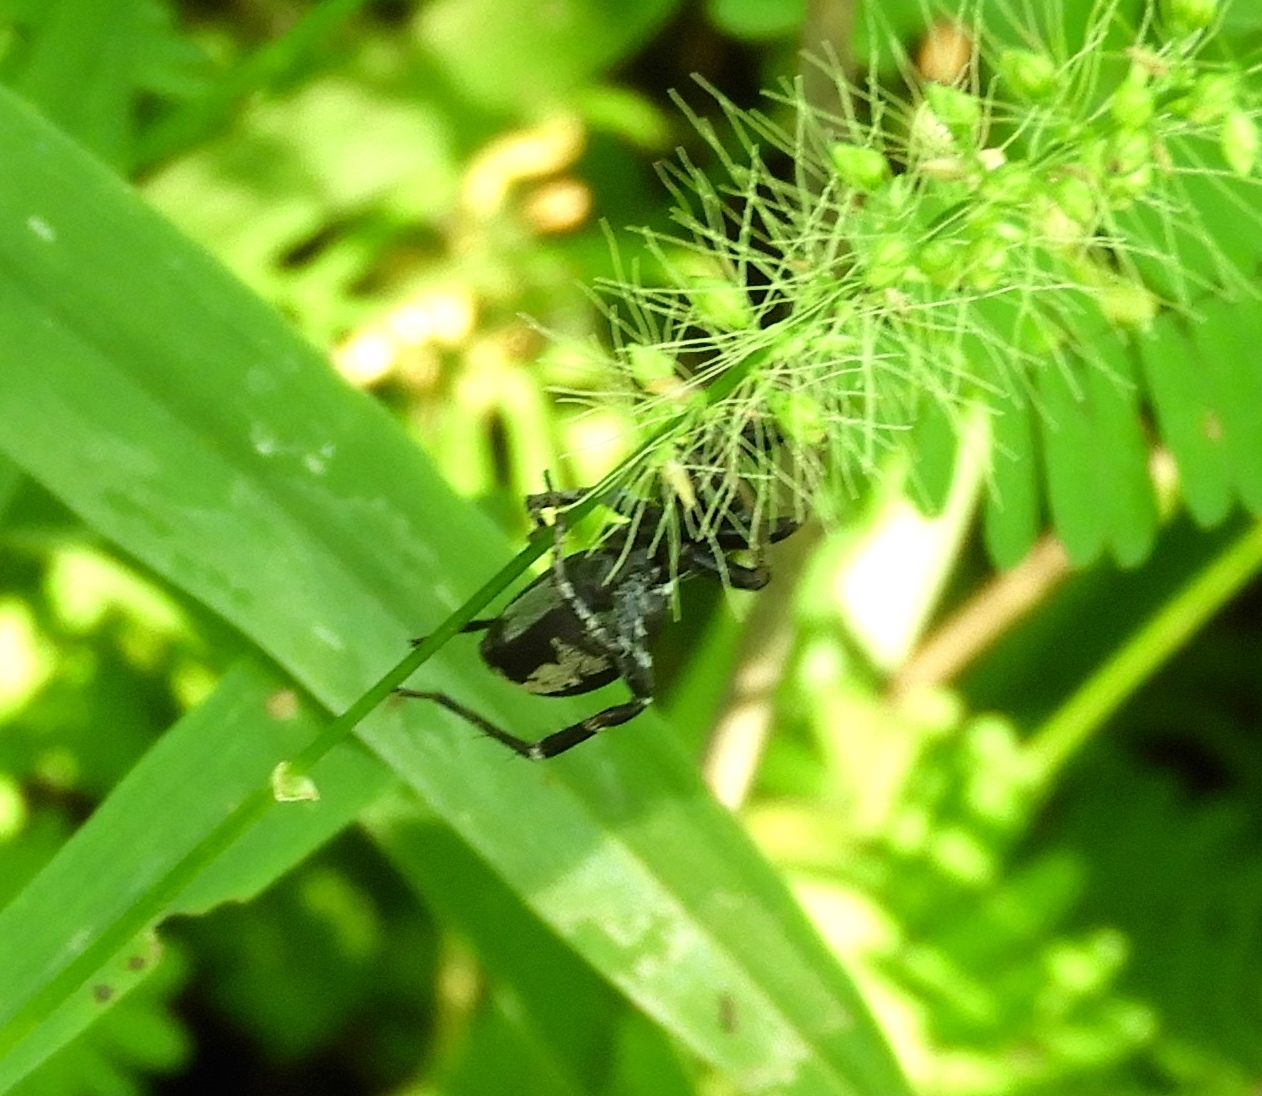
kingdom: Animalia
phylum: Arthropoda
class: Arachnida
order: Araneae
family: Corinnidae
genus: Castianeira
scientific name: Castianeira
